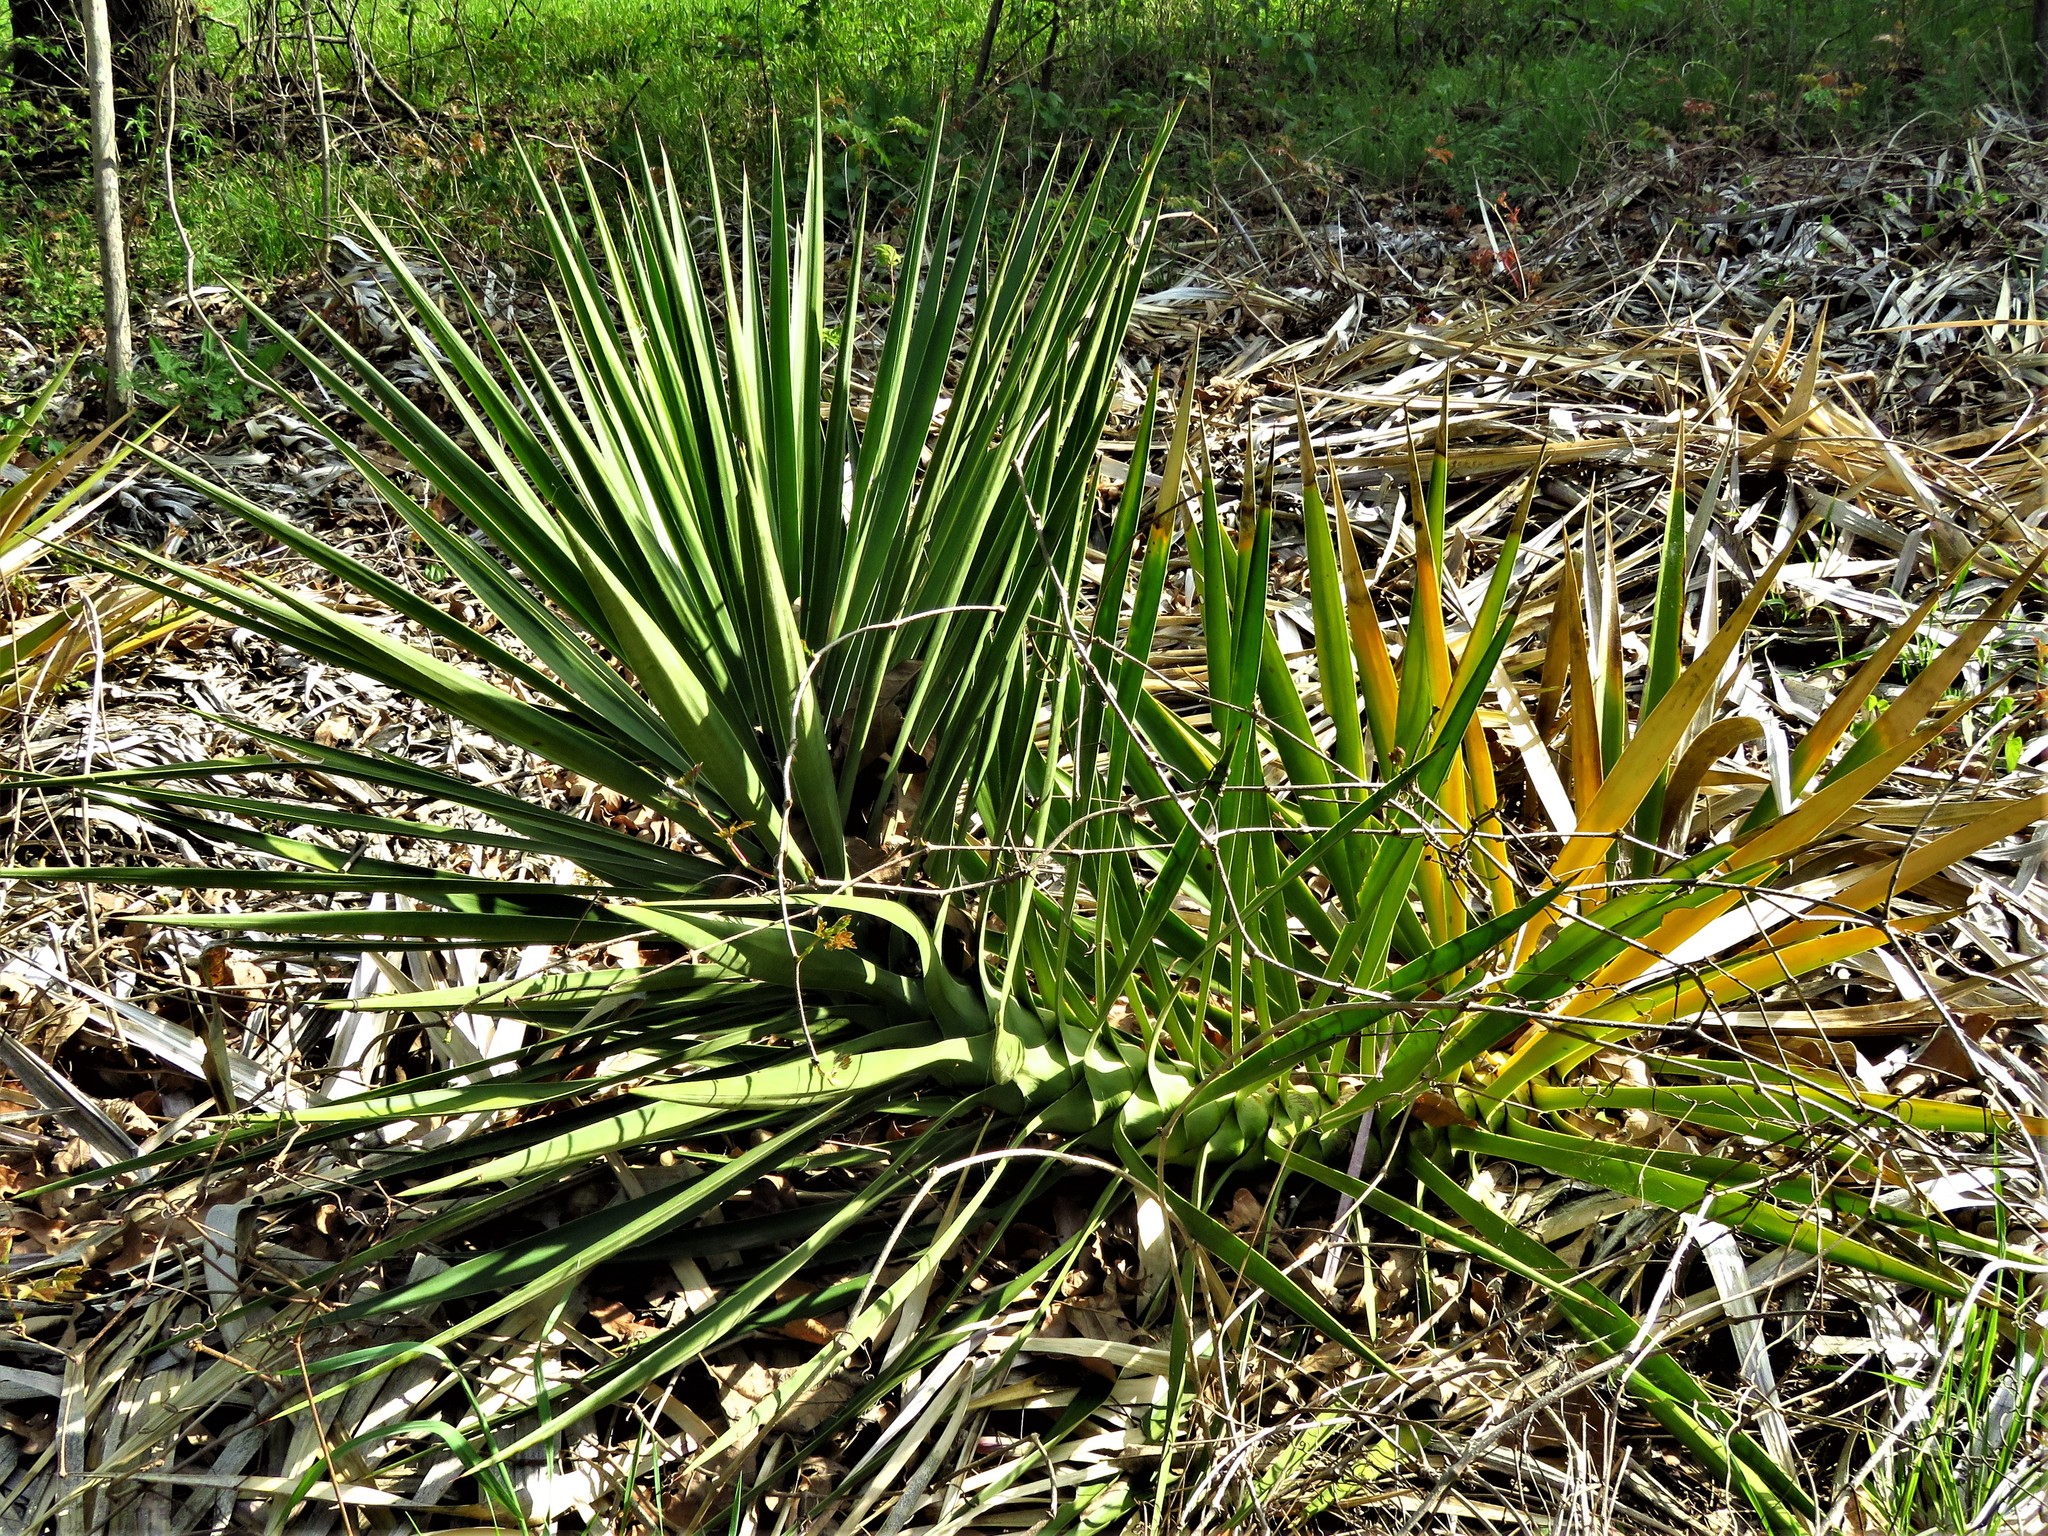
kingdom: Plantae
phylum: Tracheophyta
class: Liliopsida
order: Asparagales
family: Asparagaceae
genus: Yucca
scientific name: Yucca aloifolia
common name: Aloe yucca
